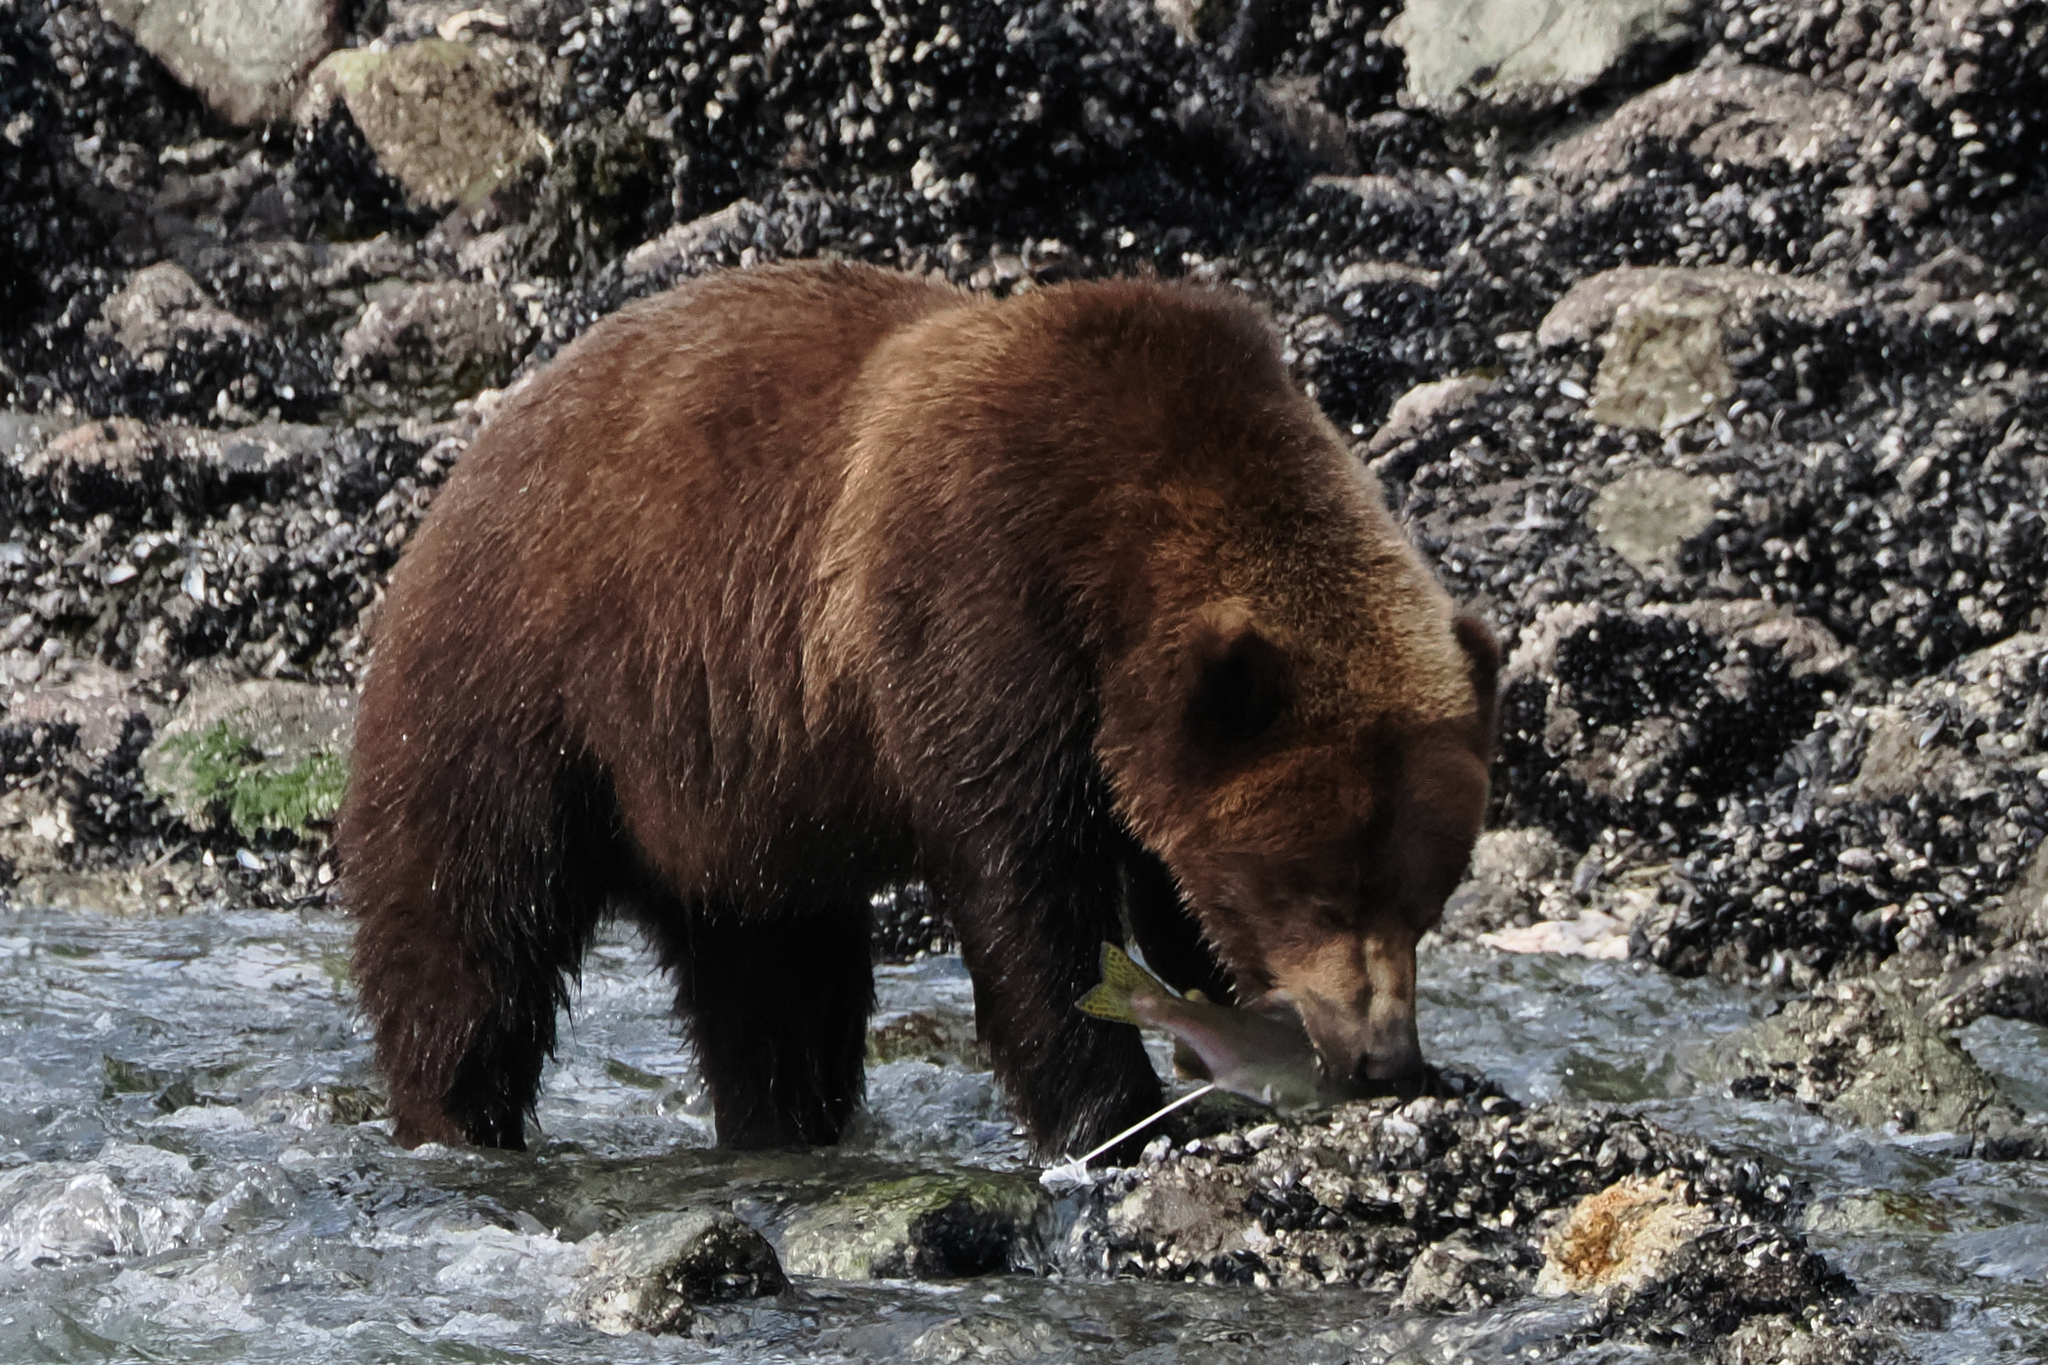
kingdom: Animalia
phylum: Chordata
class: Mammalia
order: Carnivora
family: Ursidae
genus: Ursus
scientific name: Ursus arctos
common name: Brown bear
